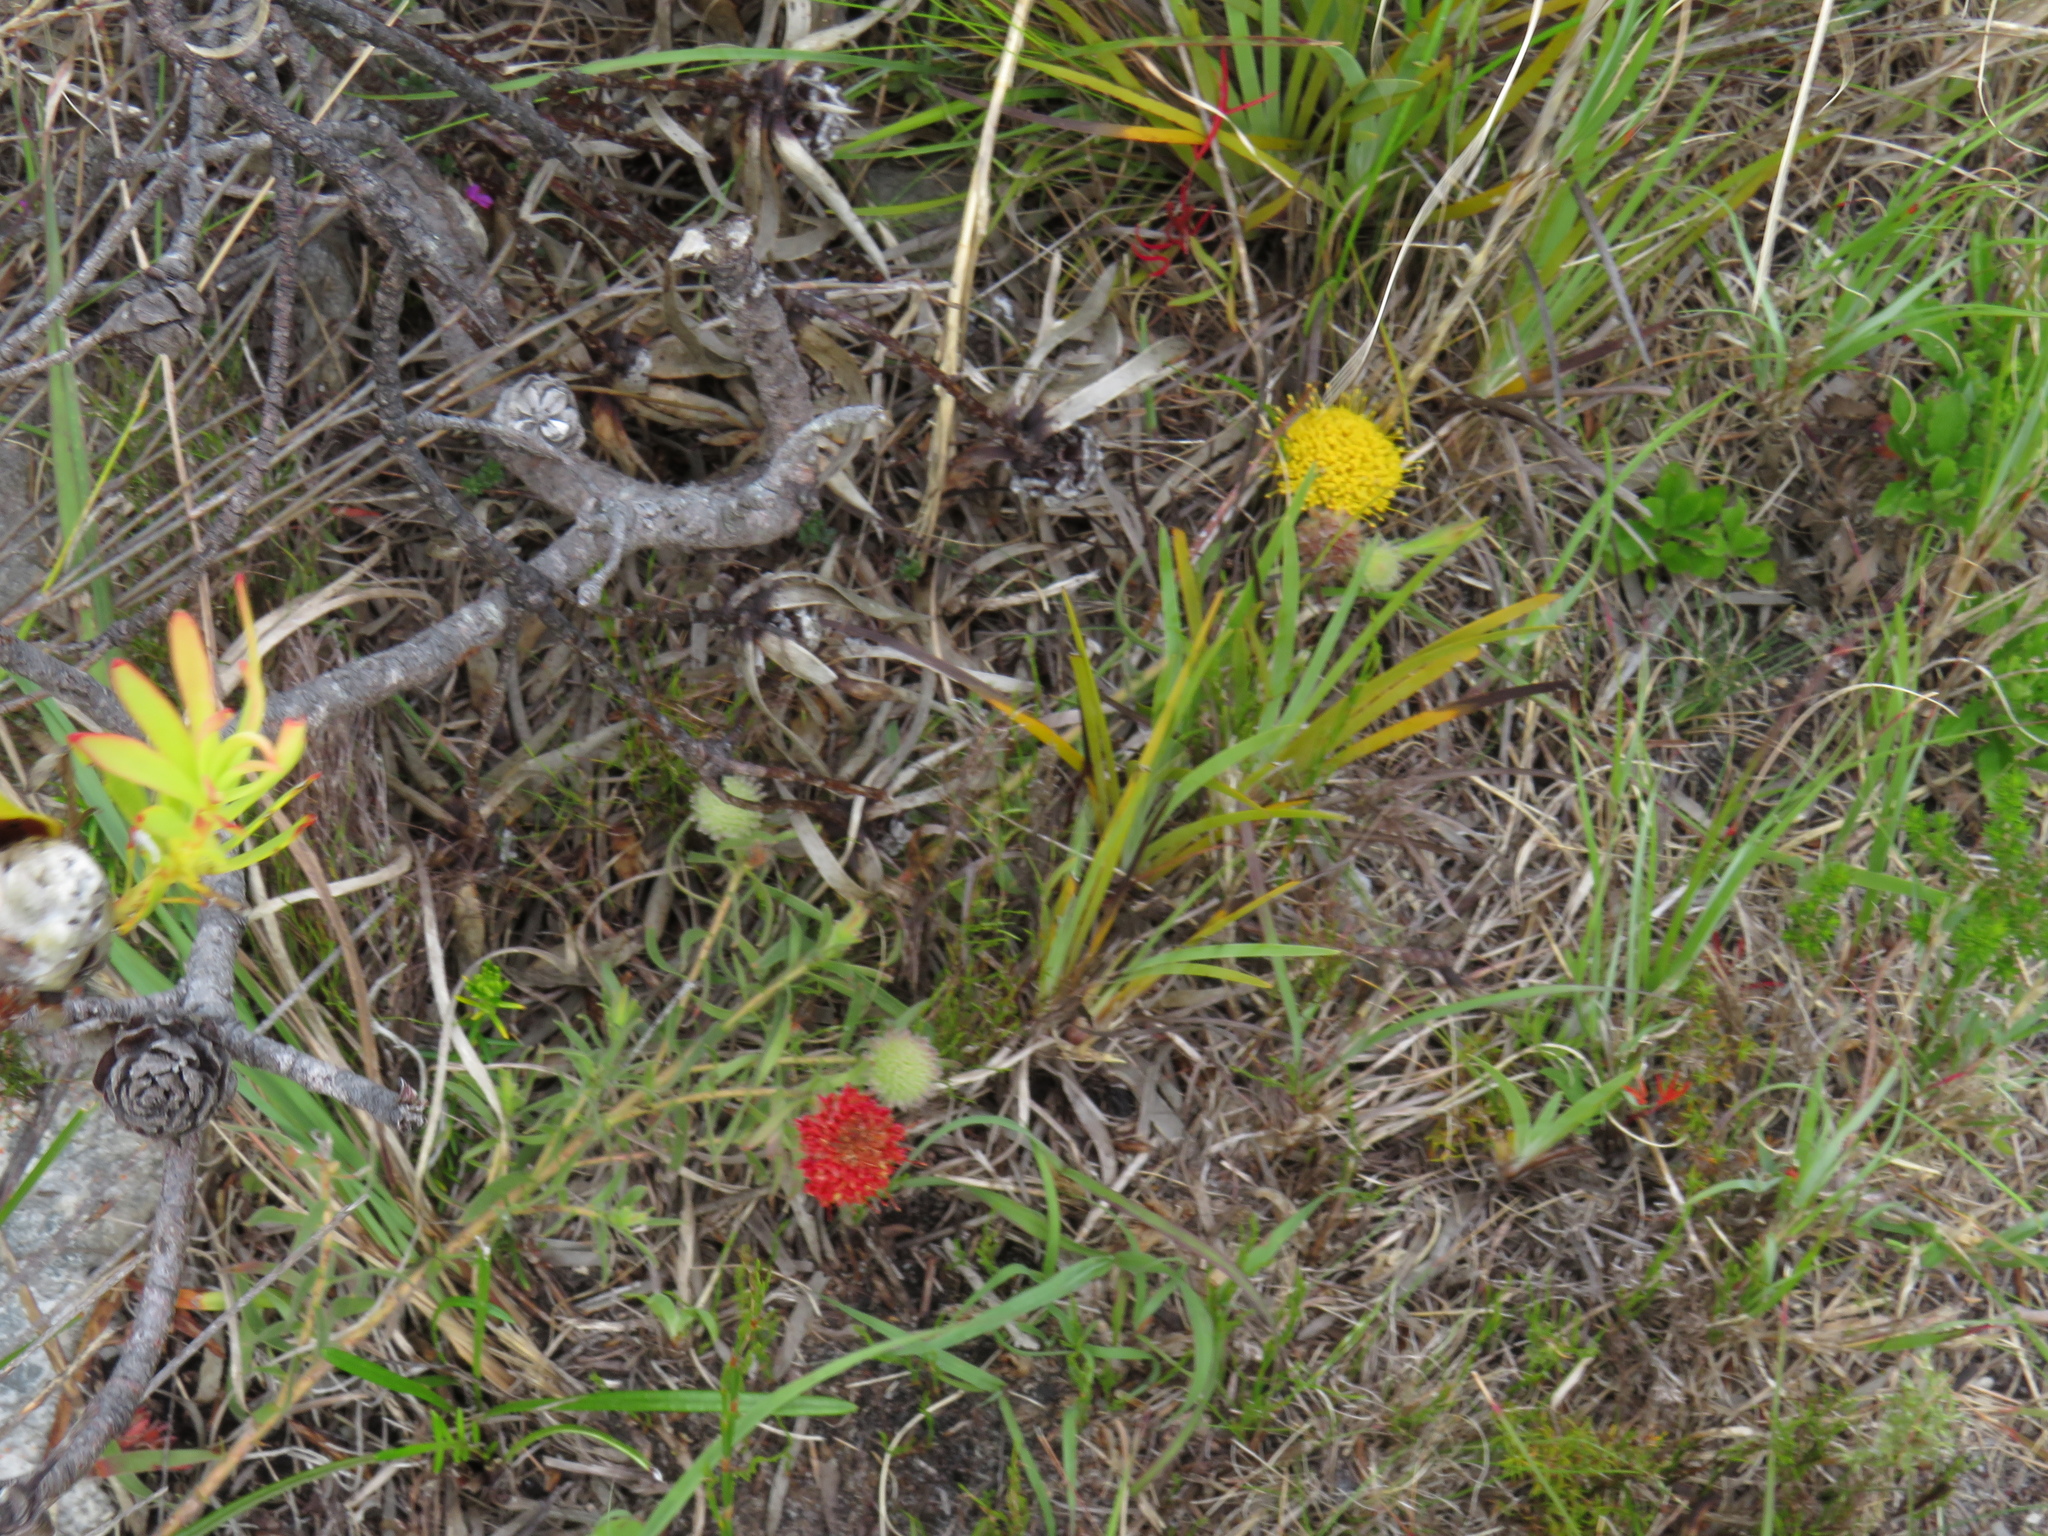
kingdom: Plantae
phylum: Tracheophyta
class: Magnoliopsida
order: Proteales
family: Proteaceae
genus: Leucospermum
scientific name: Leucospermum prostratum
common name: Yellow-trailing pincushion
